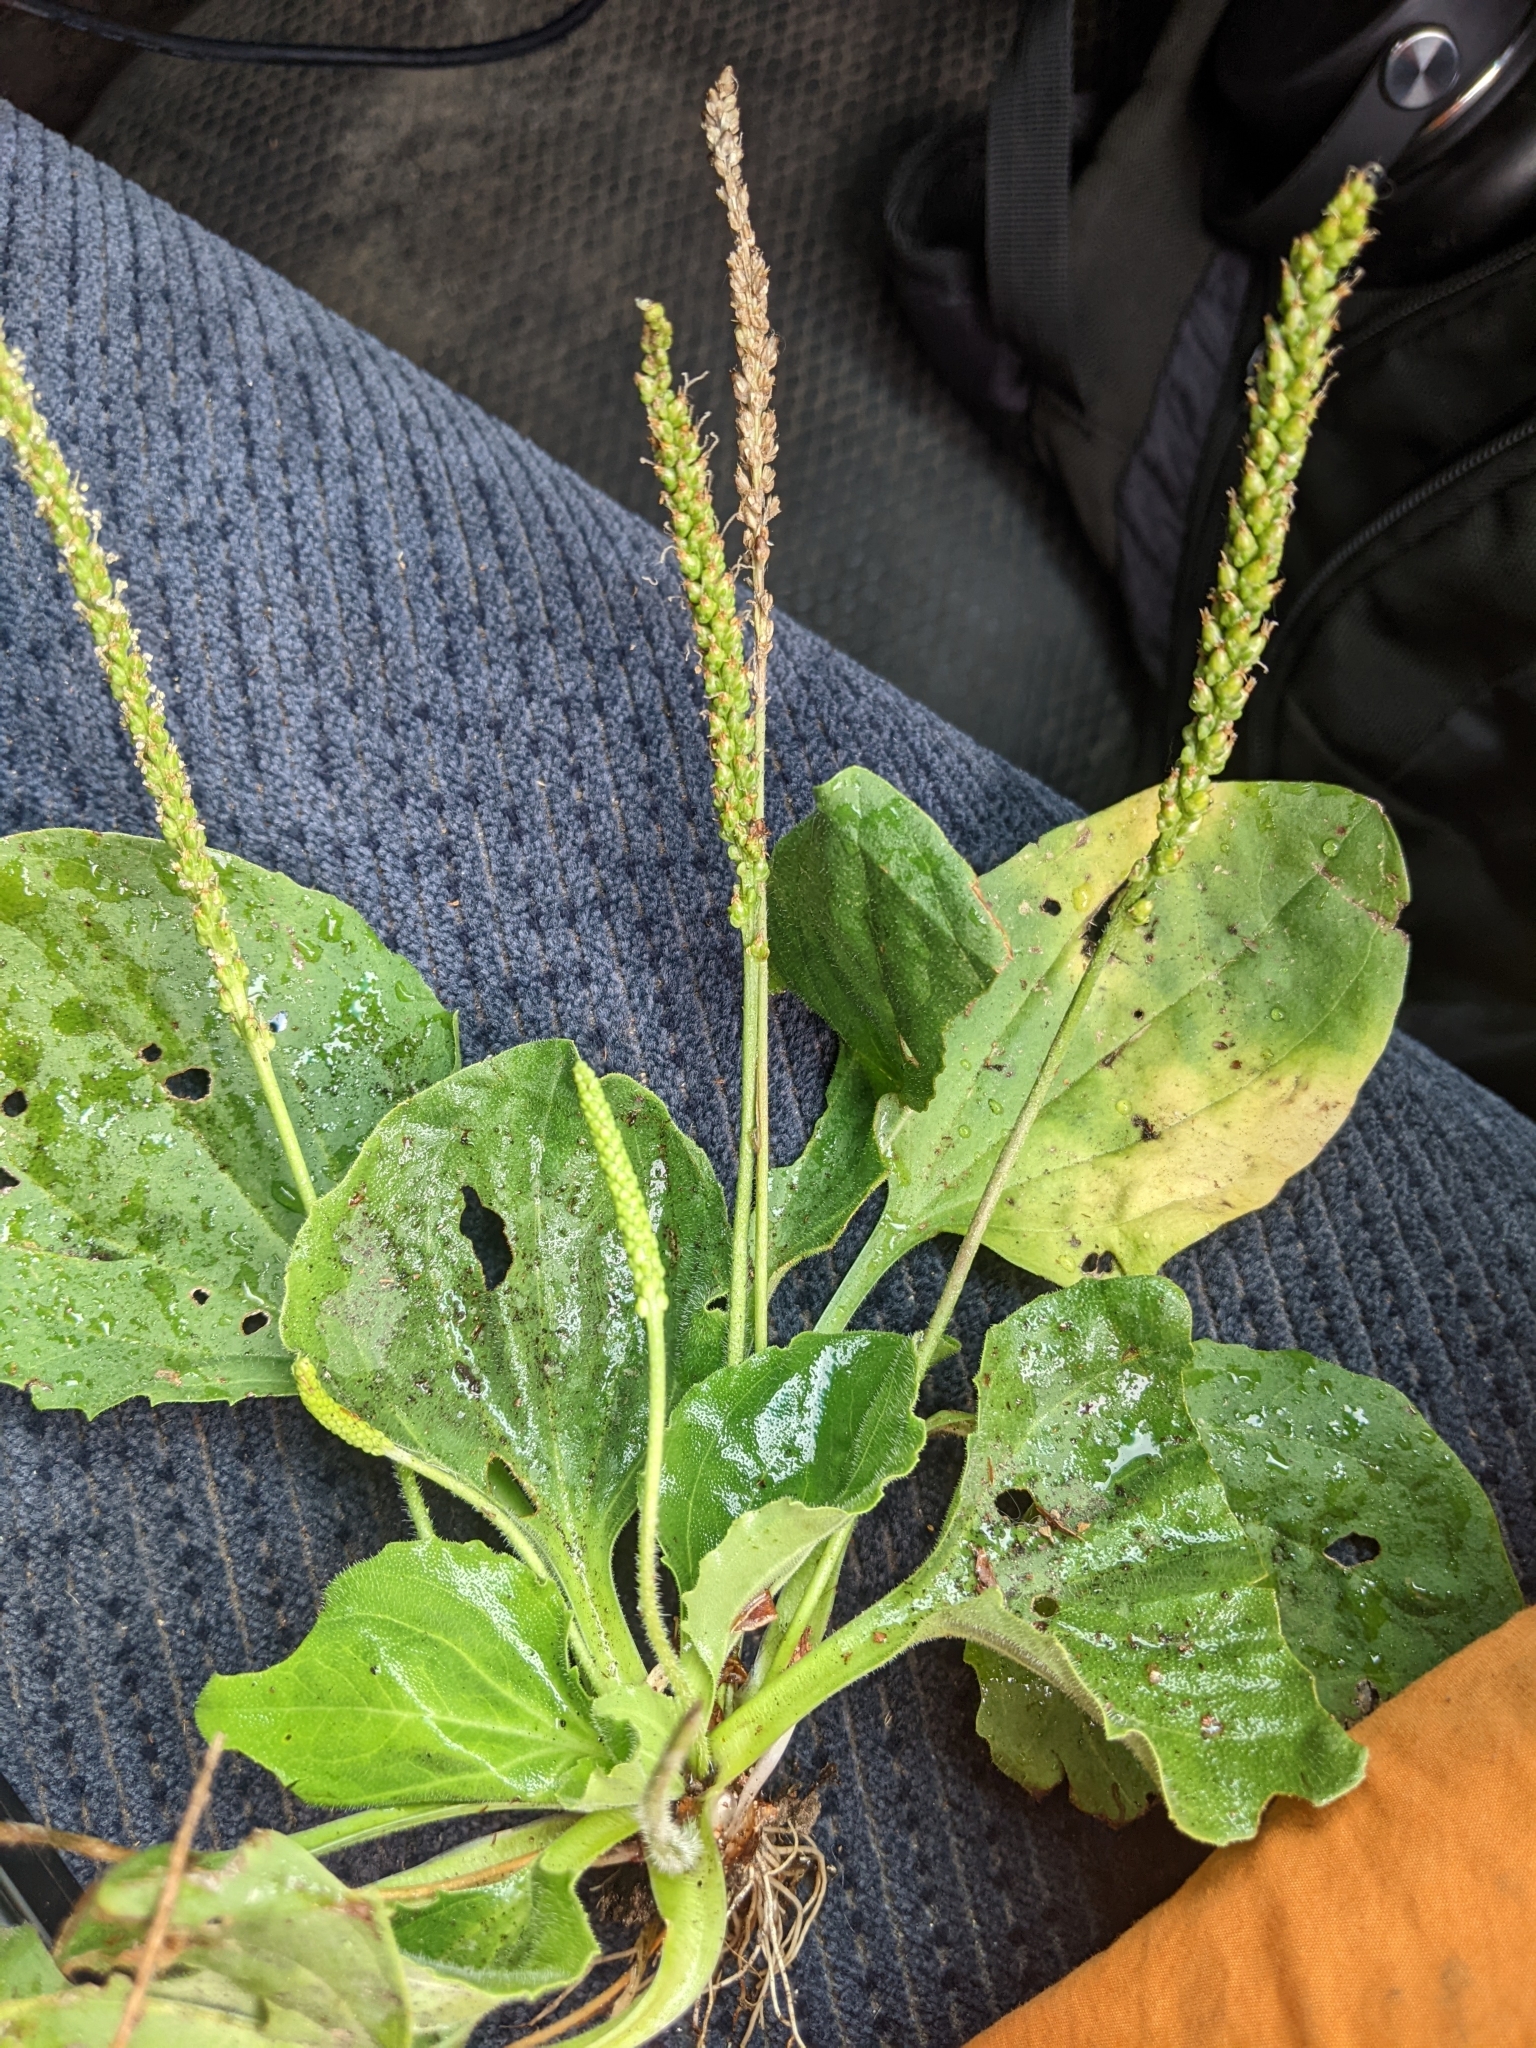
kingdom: Plantae
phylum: Tracheophyta
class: Magnoliopsida
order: Lamiales
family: Plantaginaceae
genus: Plantago
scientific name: Plantago major
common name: Common plantain
